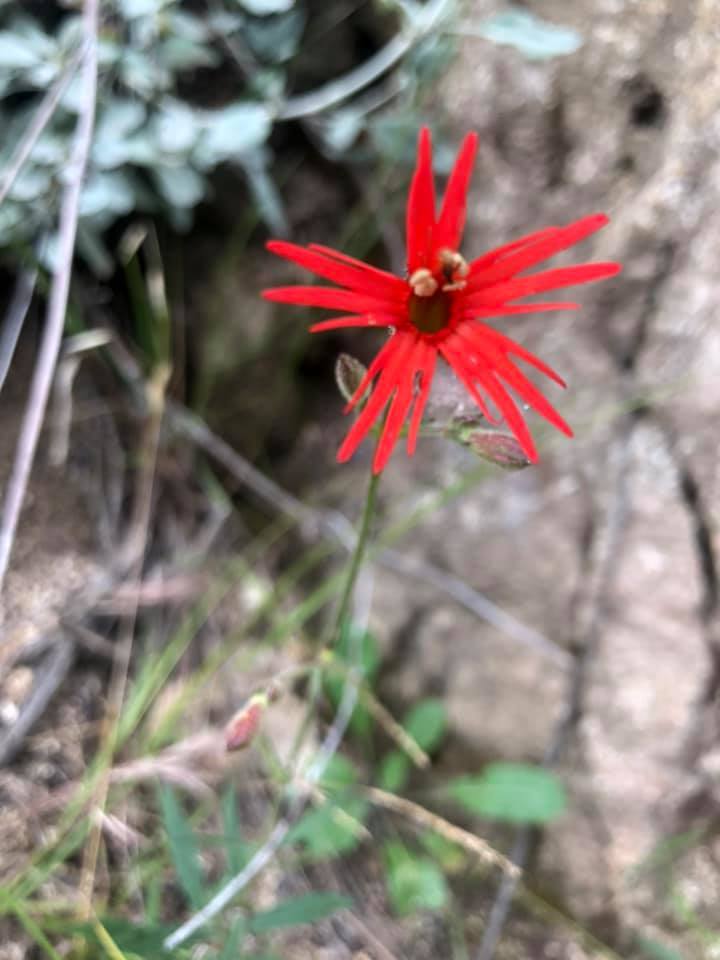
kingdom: Plantae
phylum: Tracheophyta
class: Magnoliopsida
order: Caryophyllales
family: Caryophyllaceae
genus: Silene
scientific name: Silene laciniata
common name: Indian-pink
